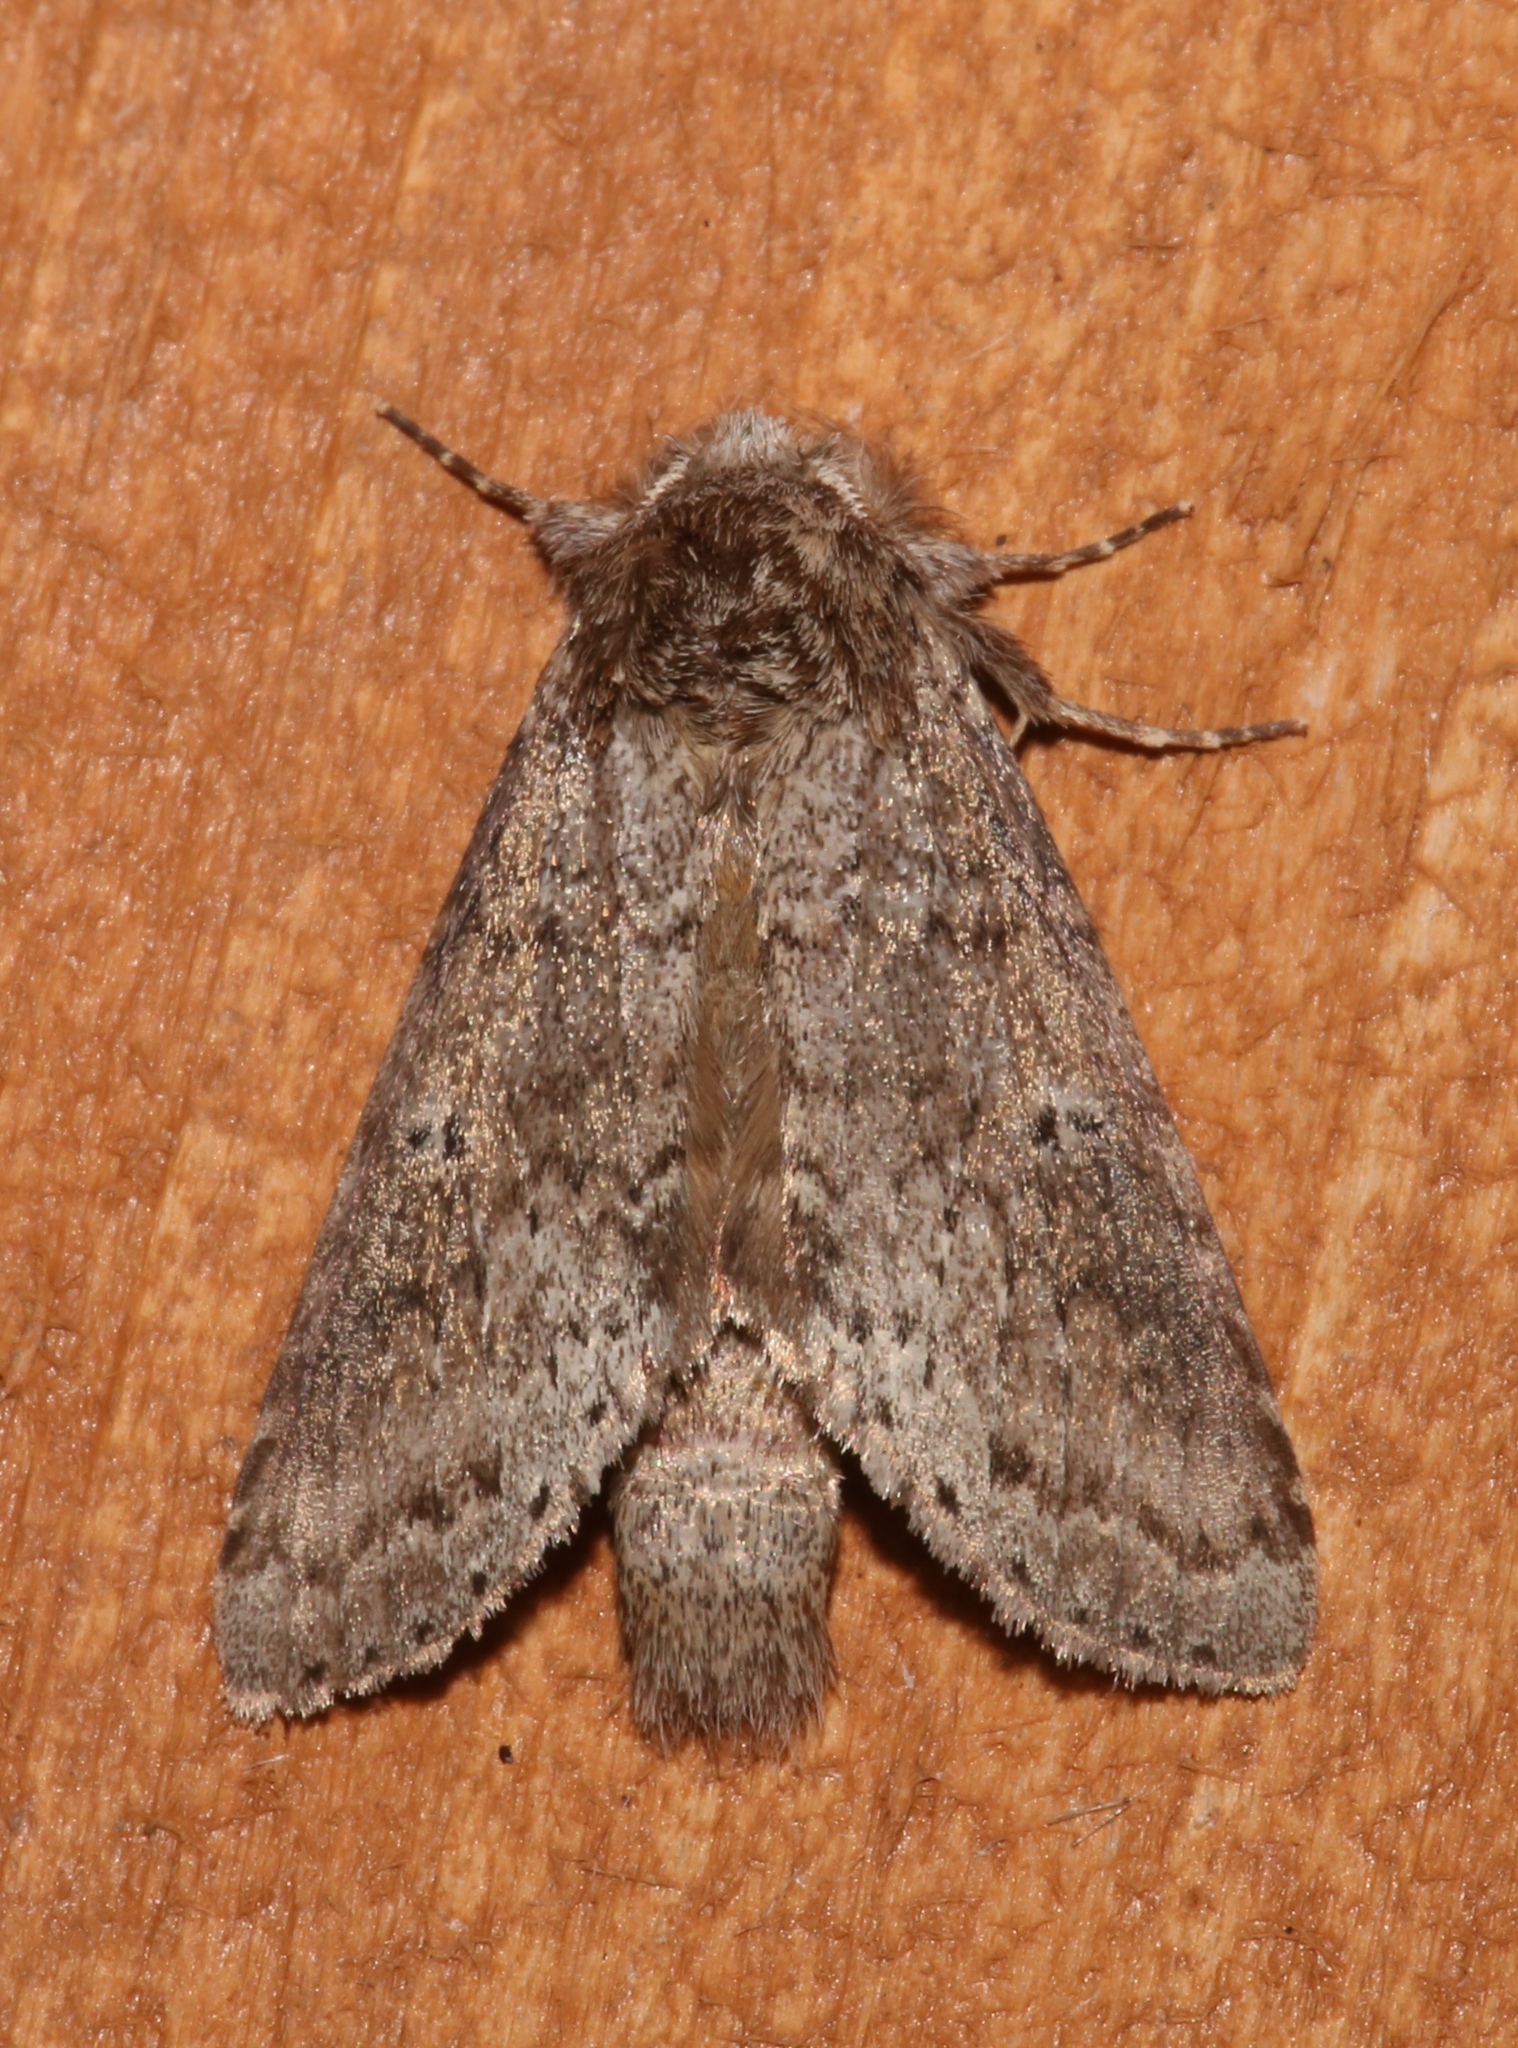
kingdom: Animalia
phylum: Arthropoda
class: Insecta
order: Lepidoptera
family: Notodontidae
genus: Lochmaeus
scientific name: Lochmaeus manteo
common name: Variable oakleaf caterpillar moth
